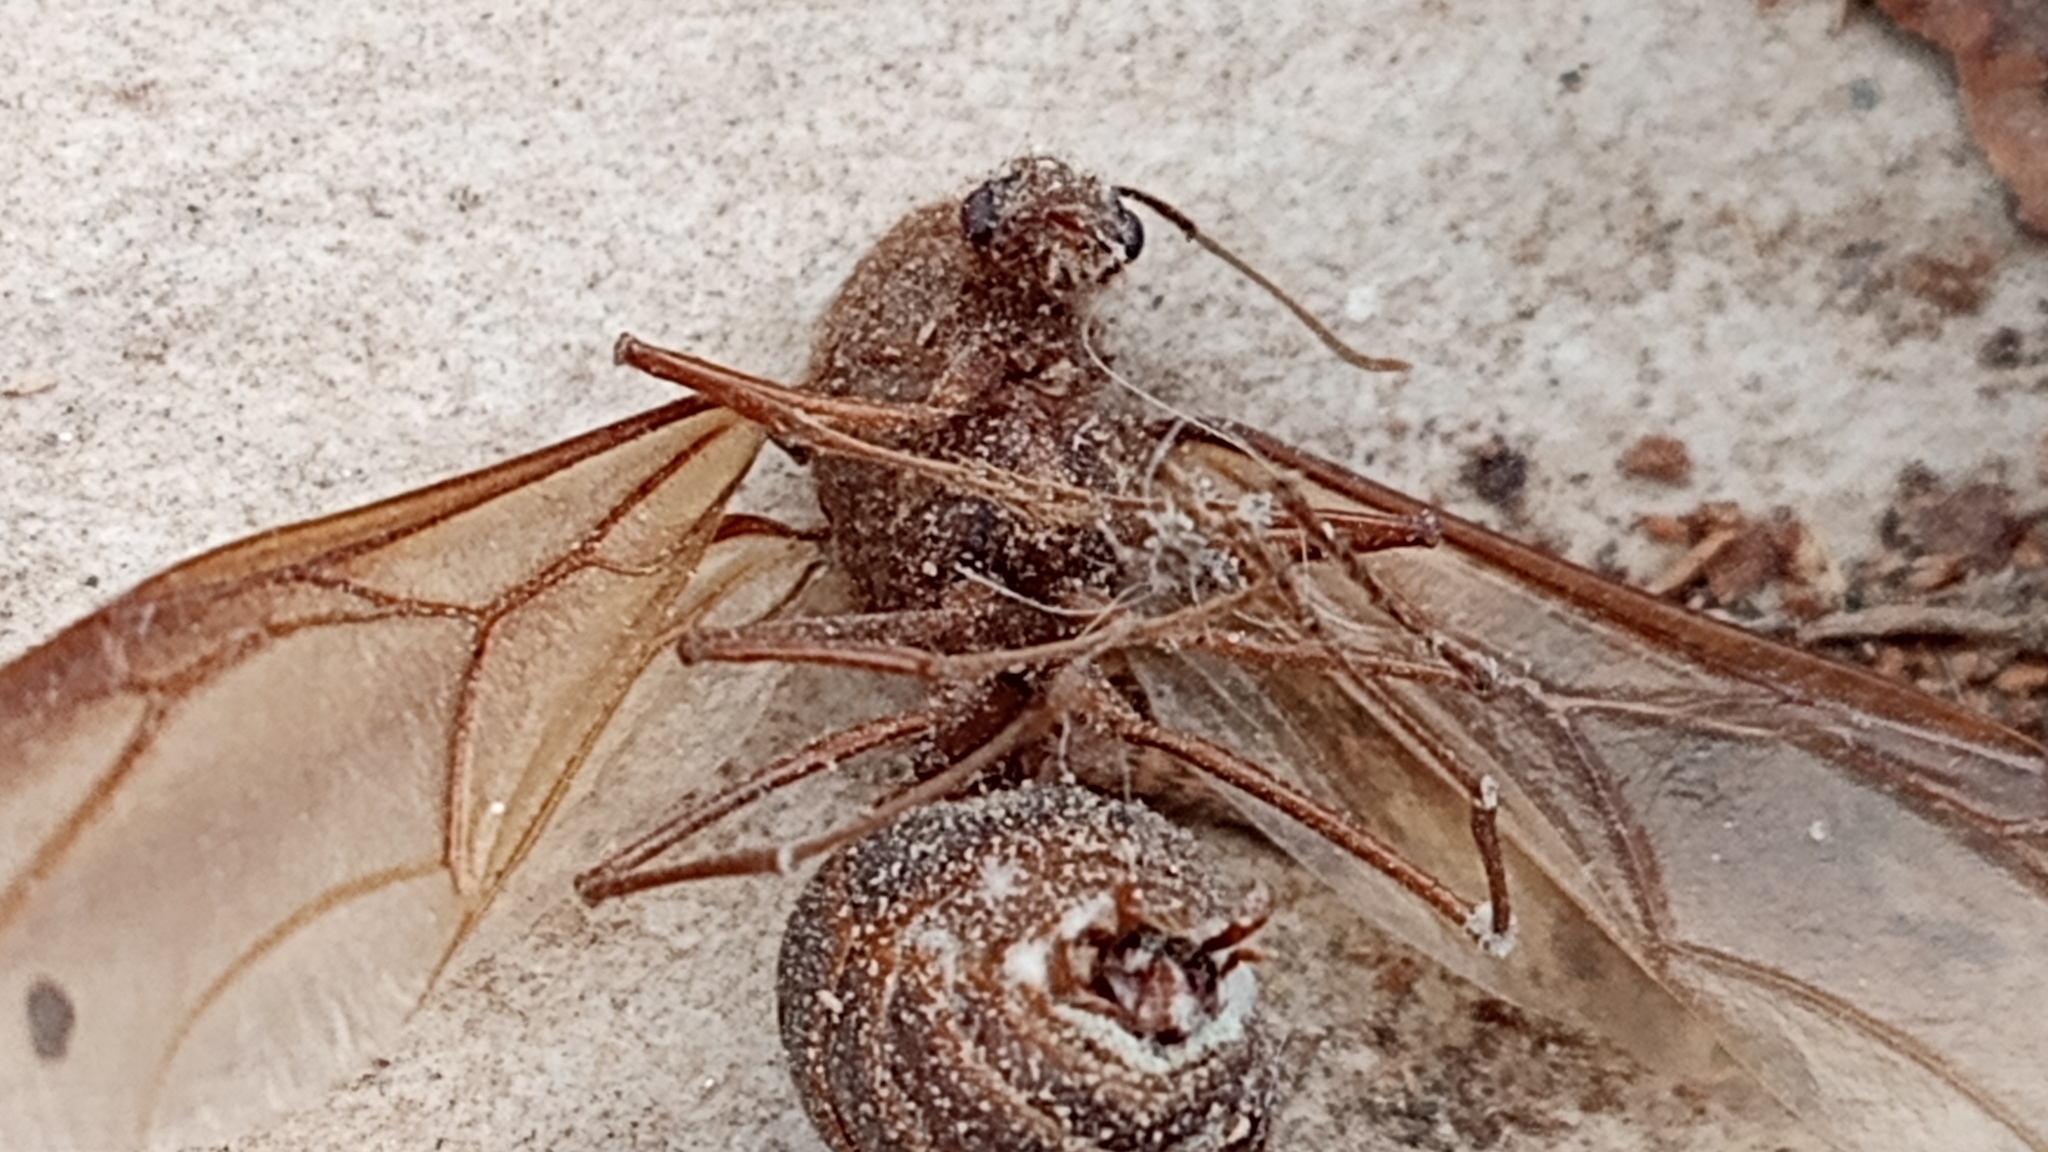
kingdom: Animalia
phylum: Arthropoda
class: Insecta
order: Hymenoptera
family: Formicidae
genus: Atta
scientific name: Atta mexicana
